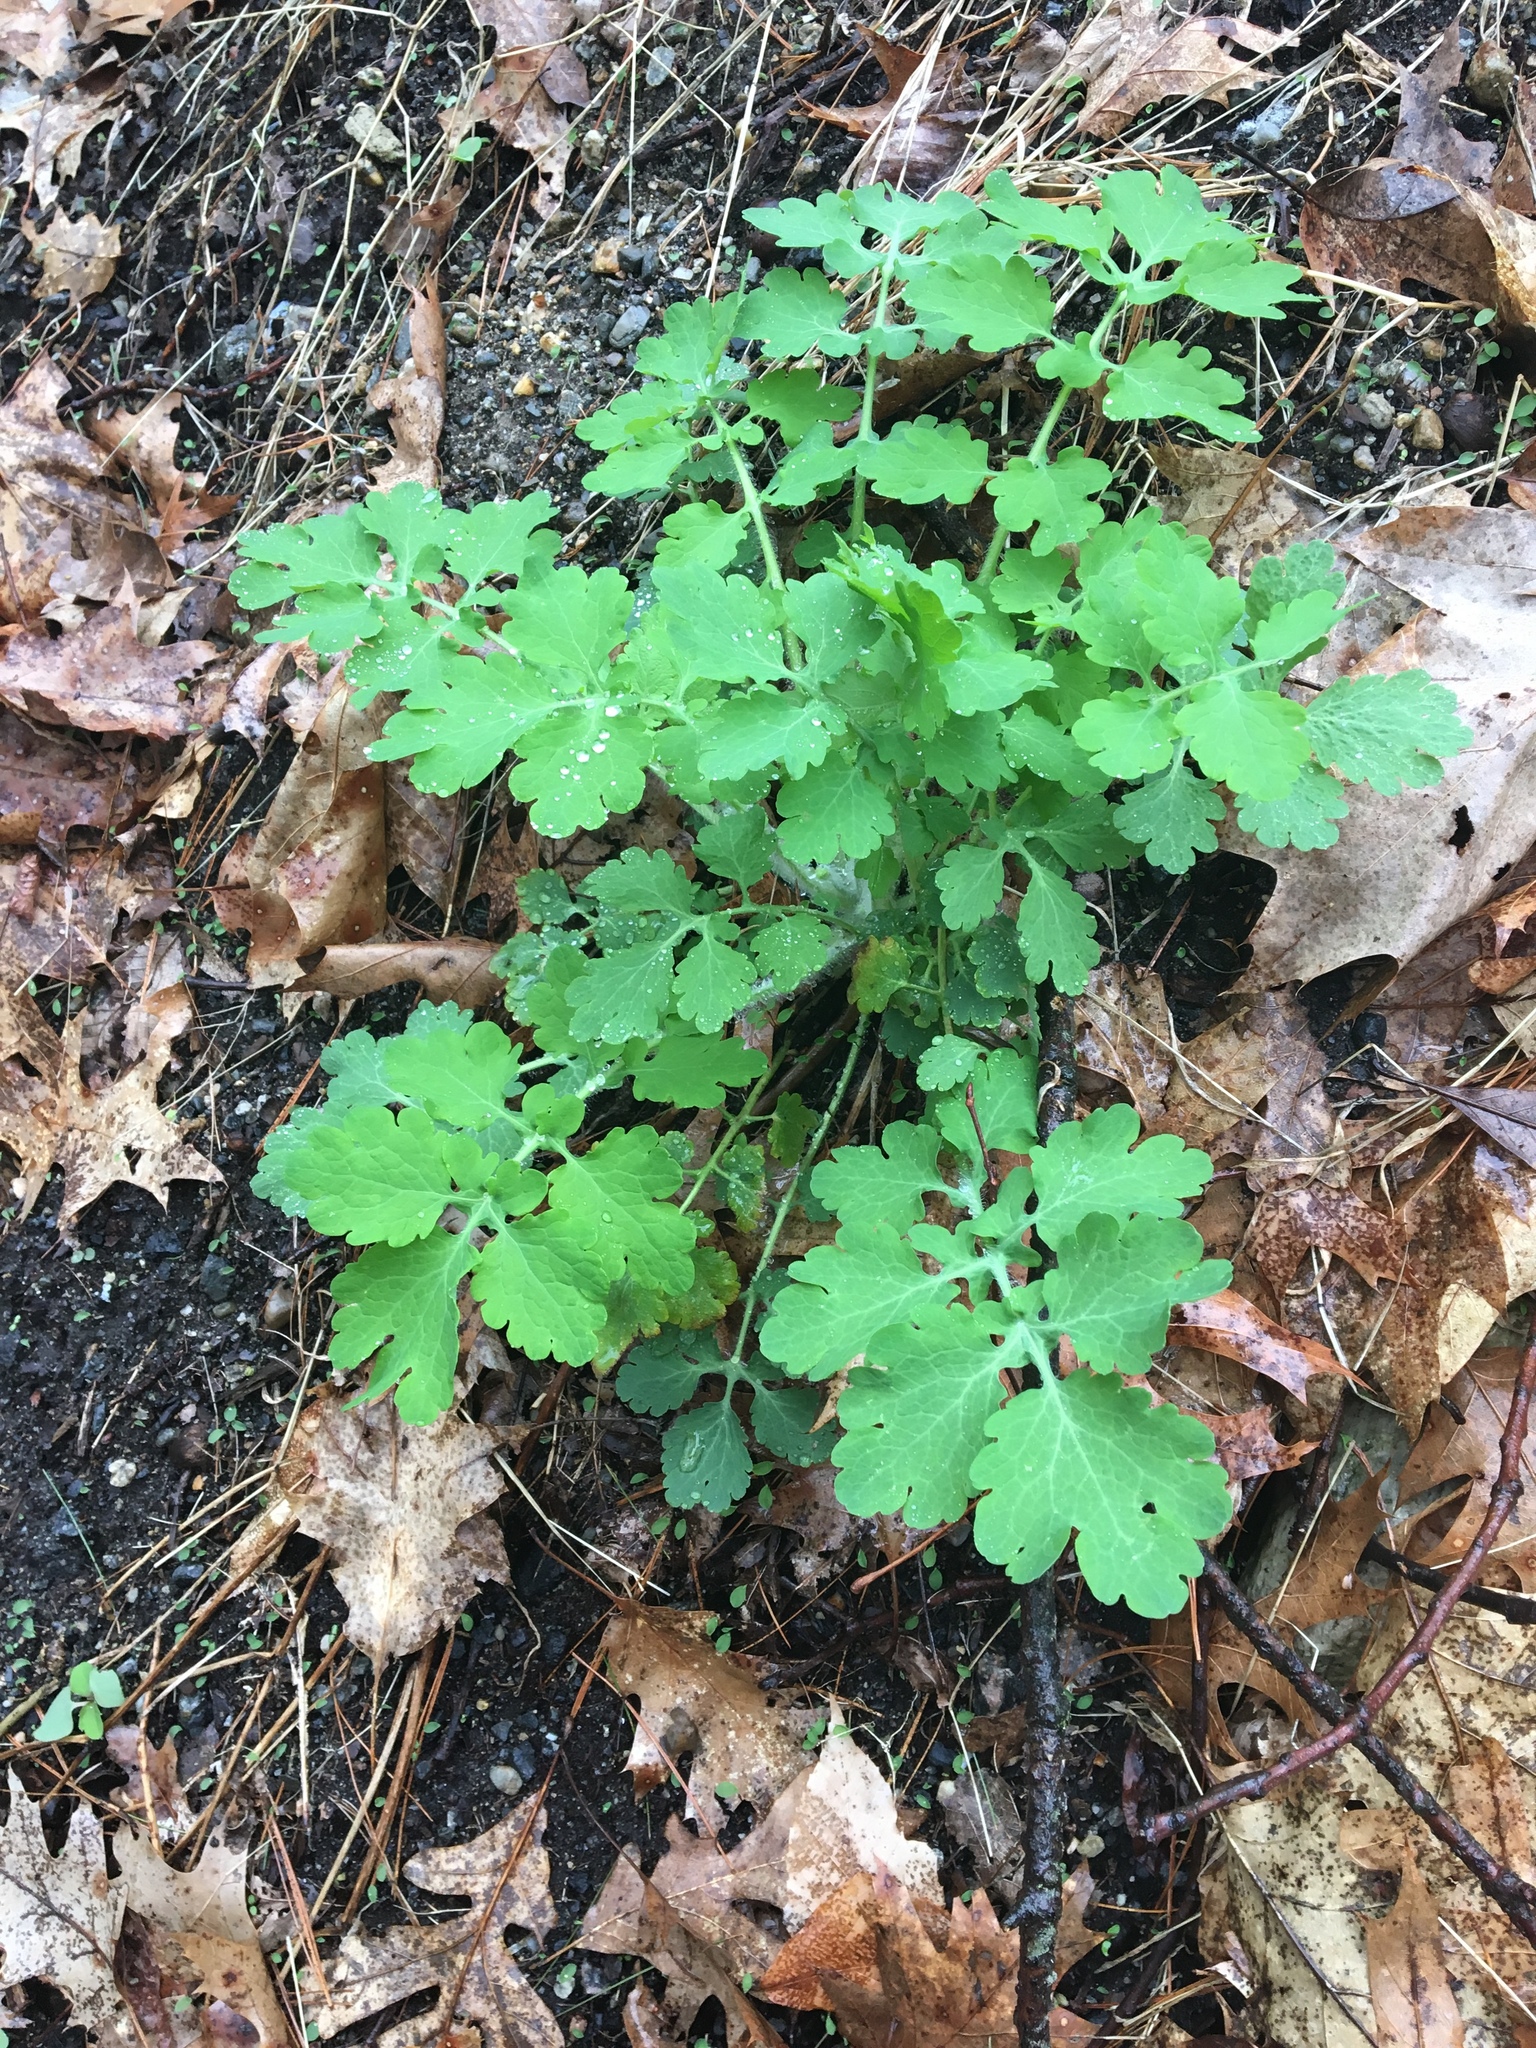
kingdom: Plantae
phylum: Tracheophyta
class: Magnoliopsida
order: Ranunculales
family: Papaveraceae
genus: Chelidonium
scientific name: Chelidonium majus
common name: Greater celandine
